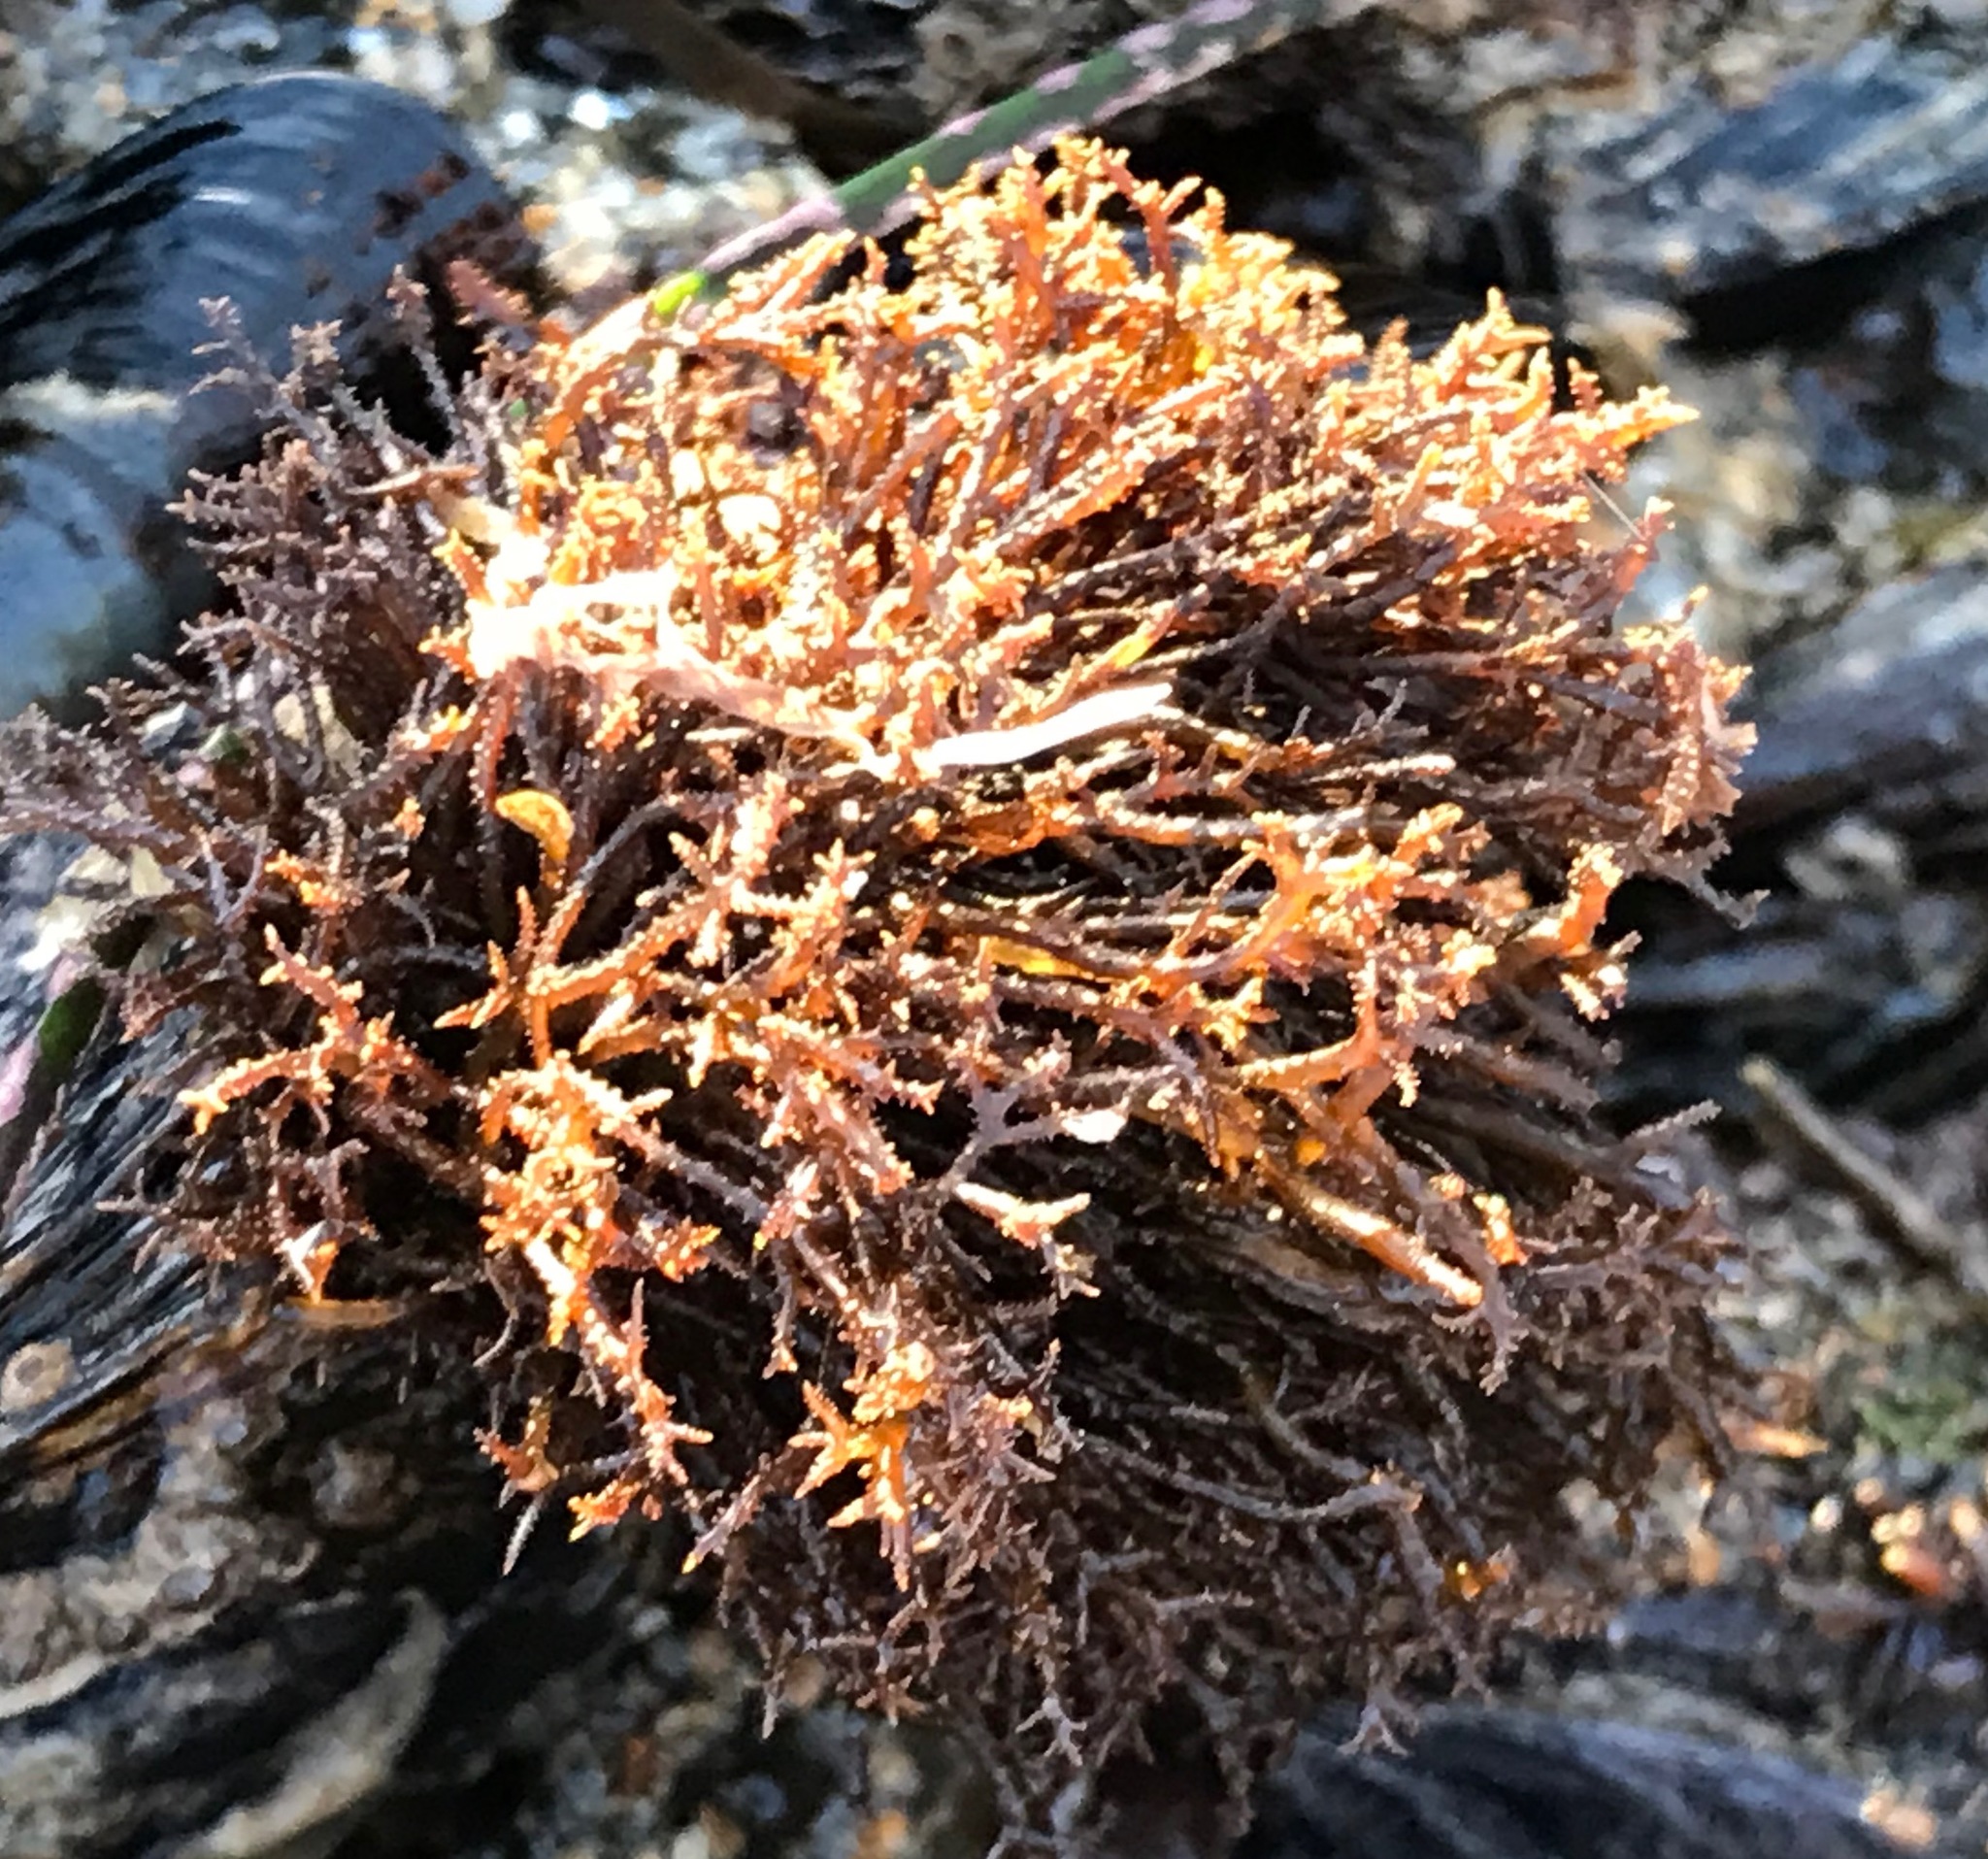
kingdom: Plantae
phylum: Rhodophyta
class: Florideophyceae
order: Gigartinales
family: Endocladiaceae
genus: Endocladia
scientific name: Endocladia muricata
